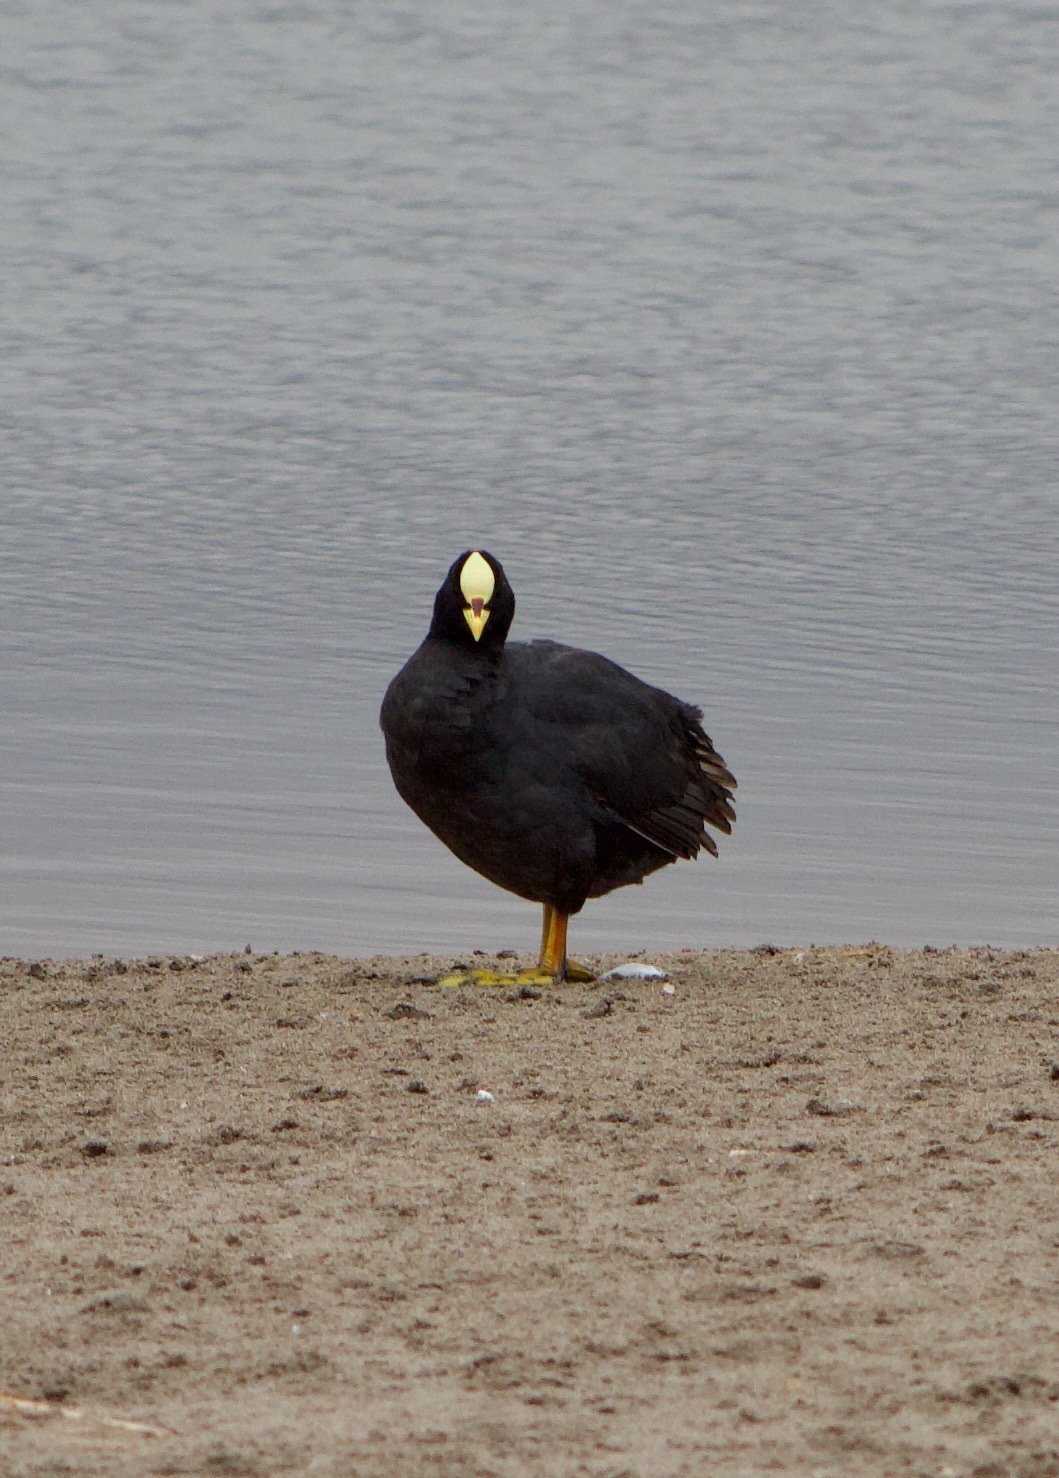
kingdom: Animalia
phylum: Chordata
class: Aves
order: Gruiformes
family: Rallidae
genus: Fulica
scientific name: Fulica armillata
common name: Red-gartered coot
